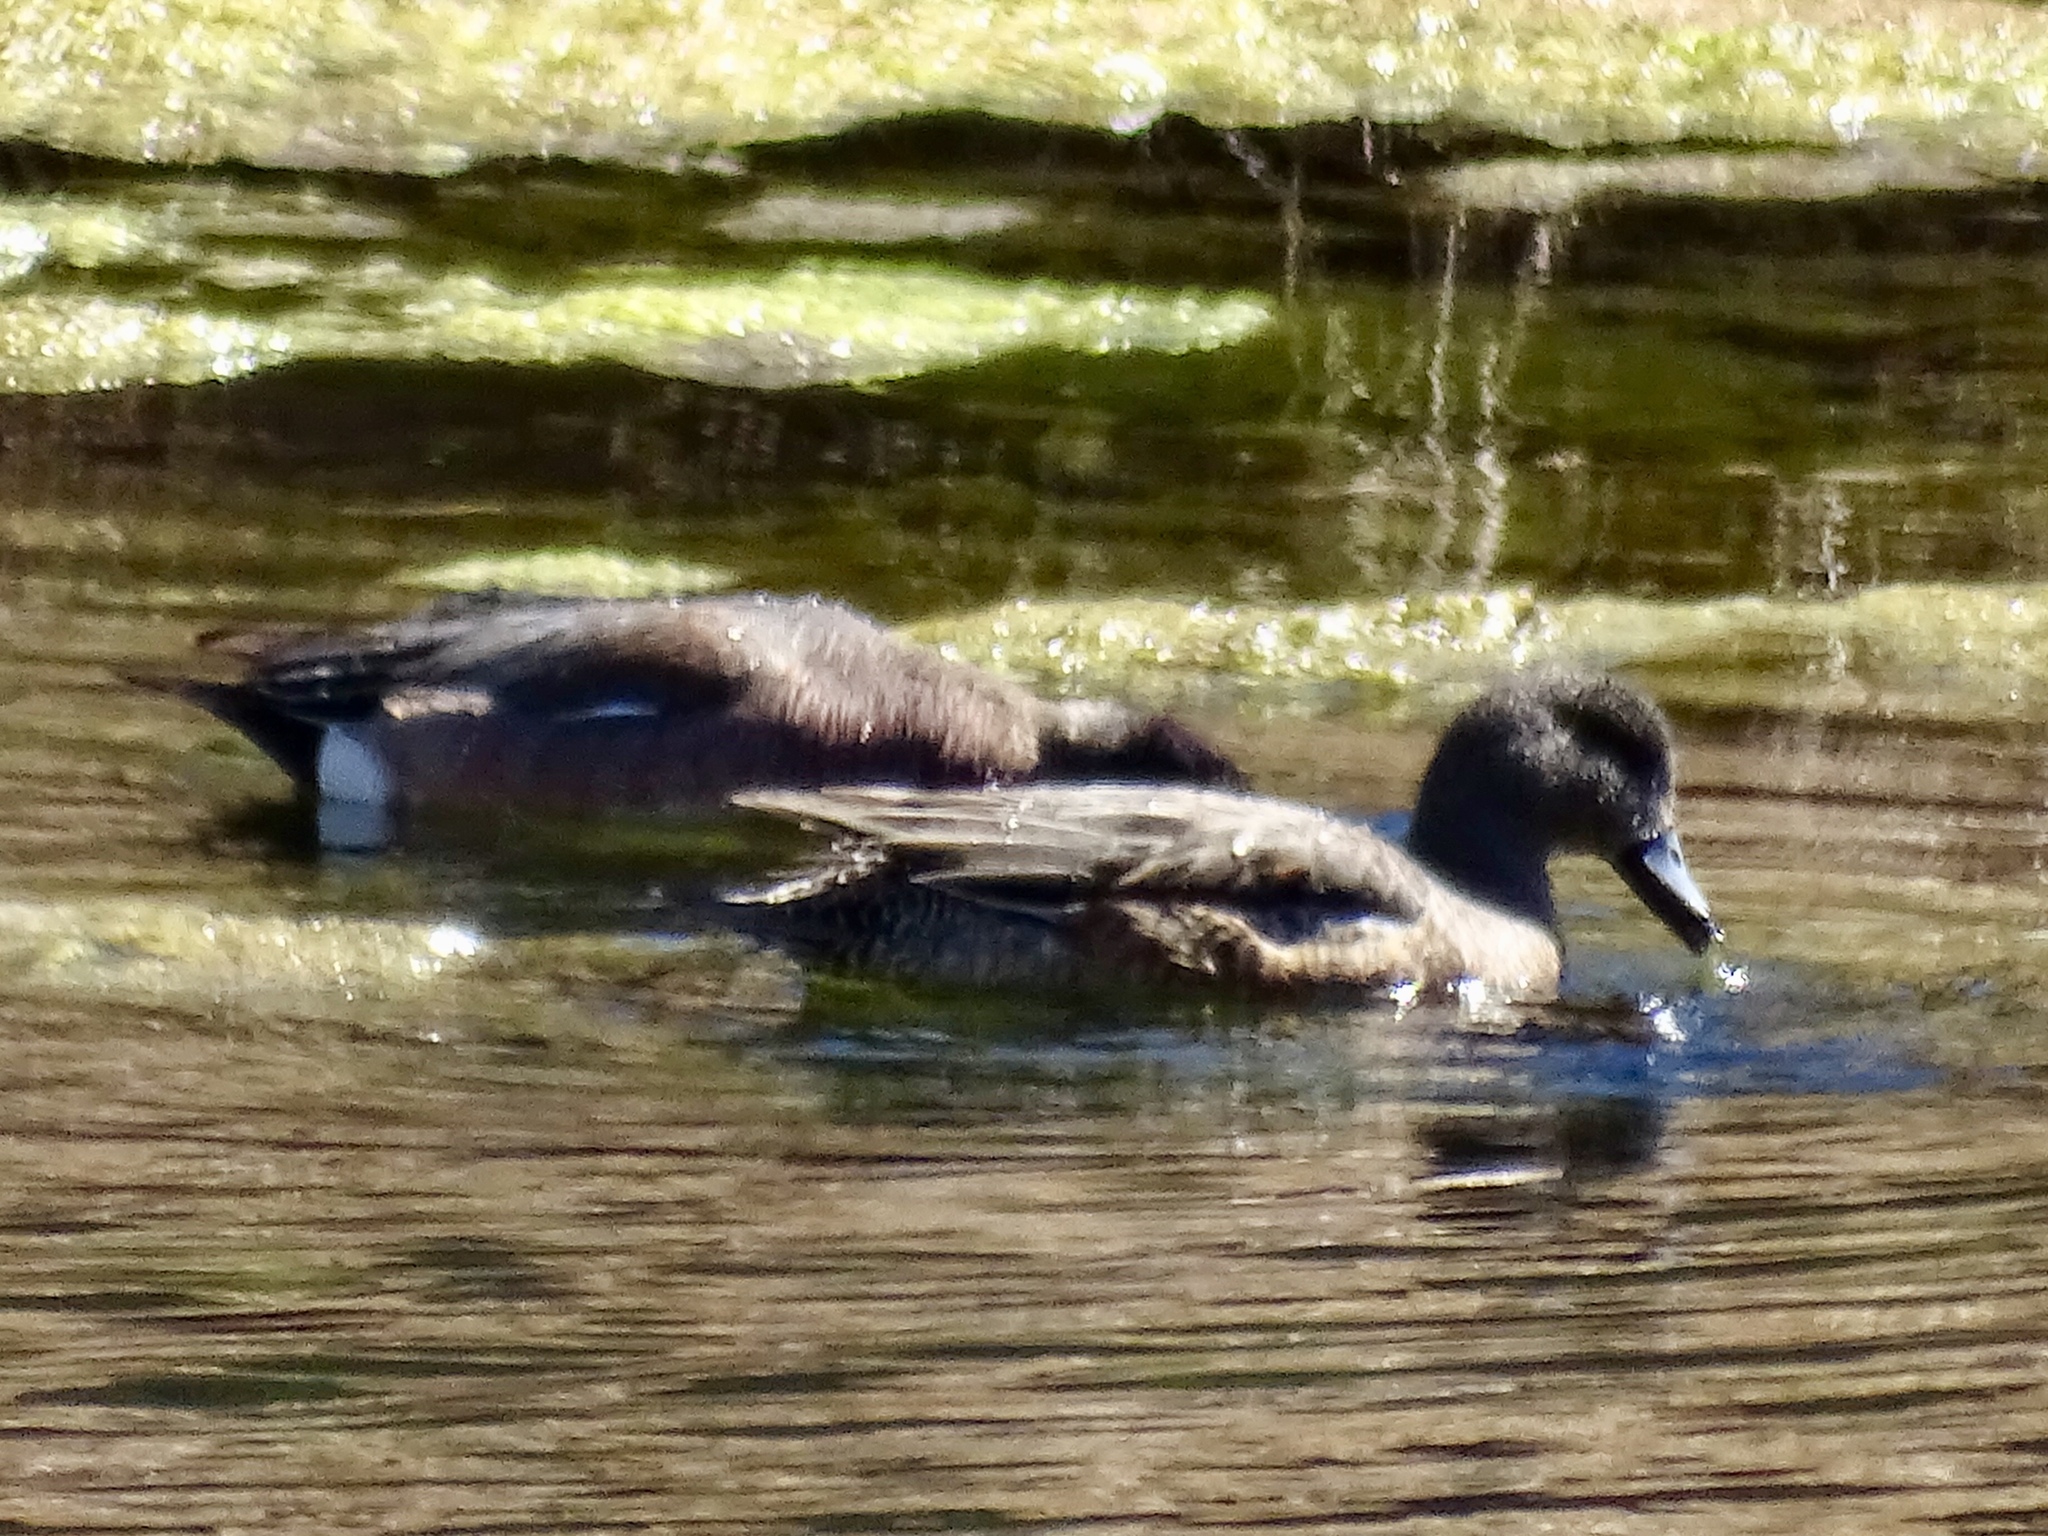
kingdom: Animalia
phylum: Chordata
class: Aves
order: Anseriformes
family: Anatidae
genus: Mareca
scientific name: Mareca americana
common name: American wigeon
